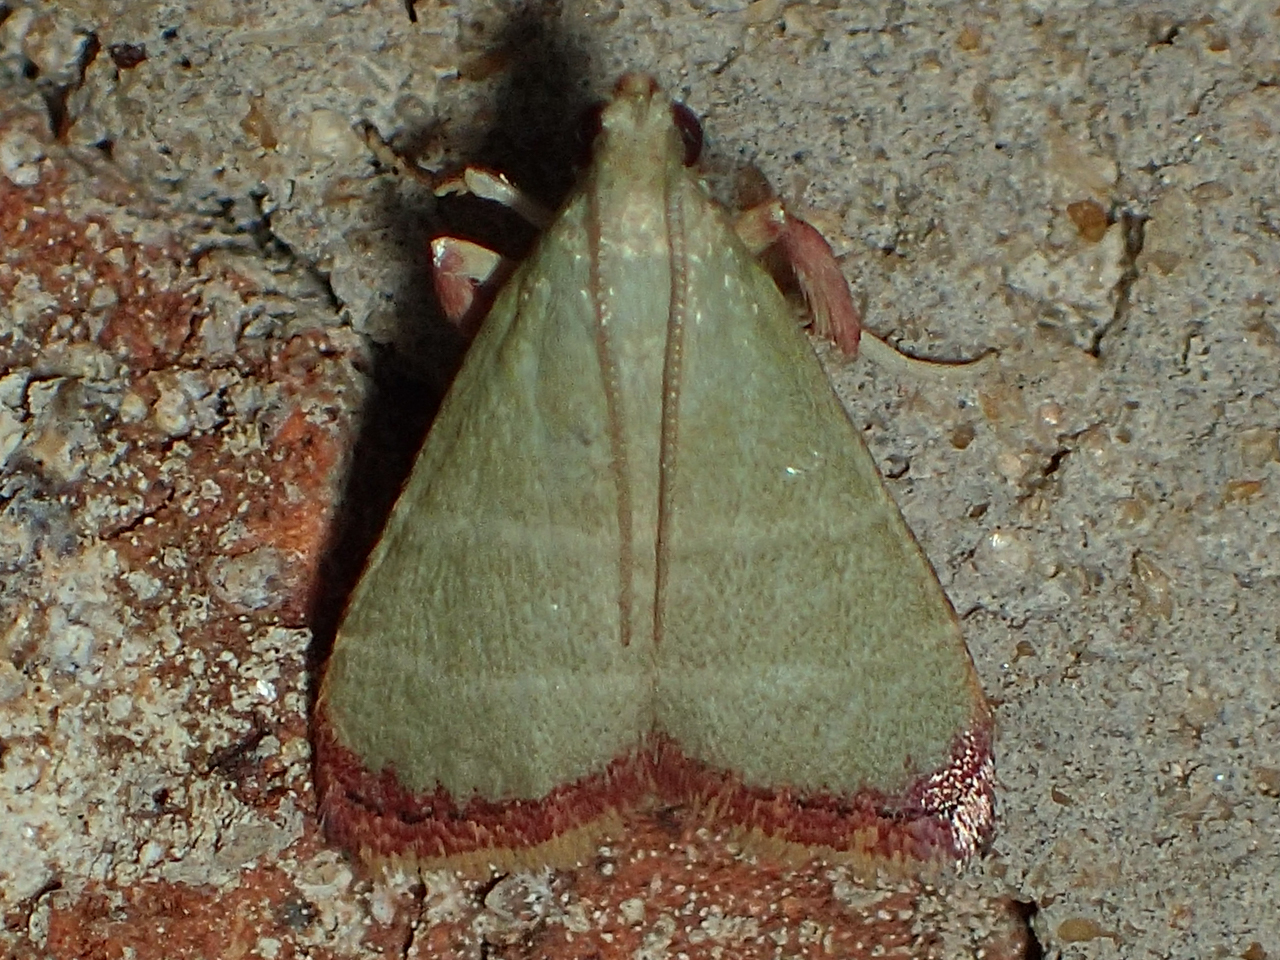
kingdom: Animalia
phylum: Arthropoda
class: Insecta
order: Lepidoptera
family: Pyralidae
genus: Arta
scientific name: Arta olivalis
